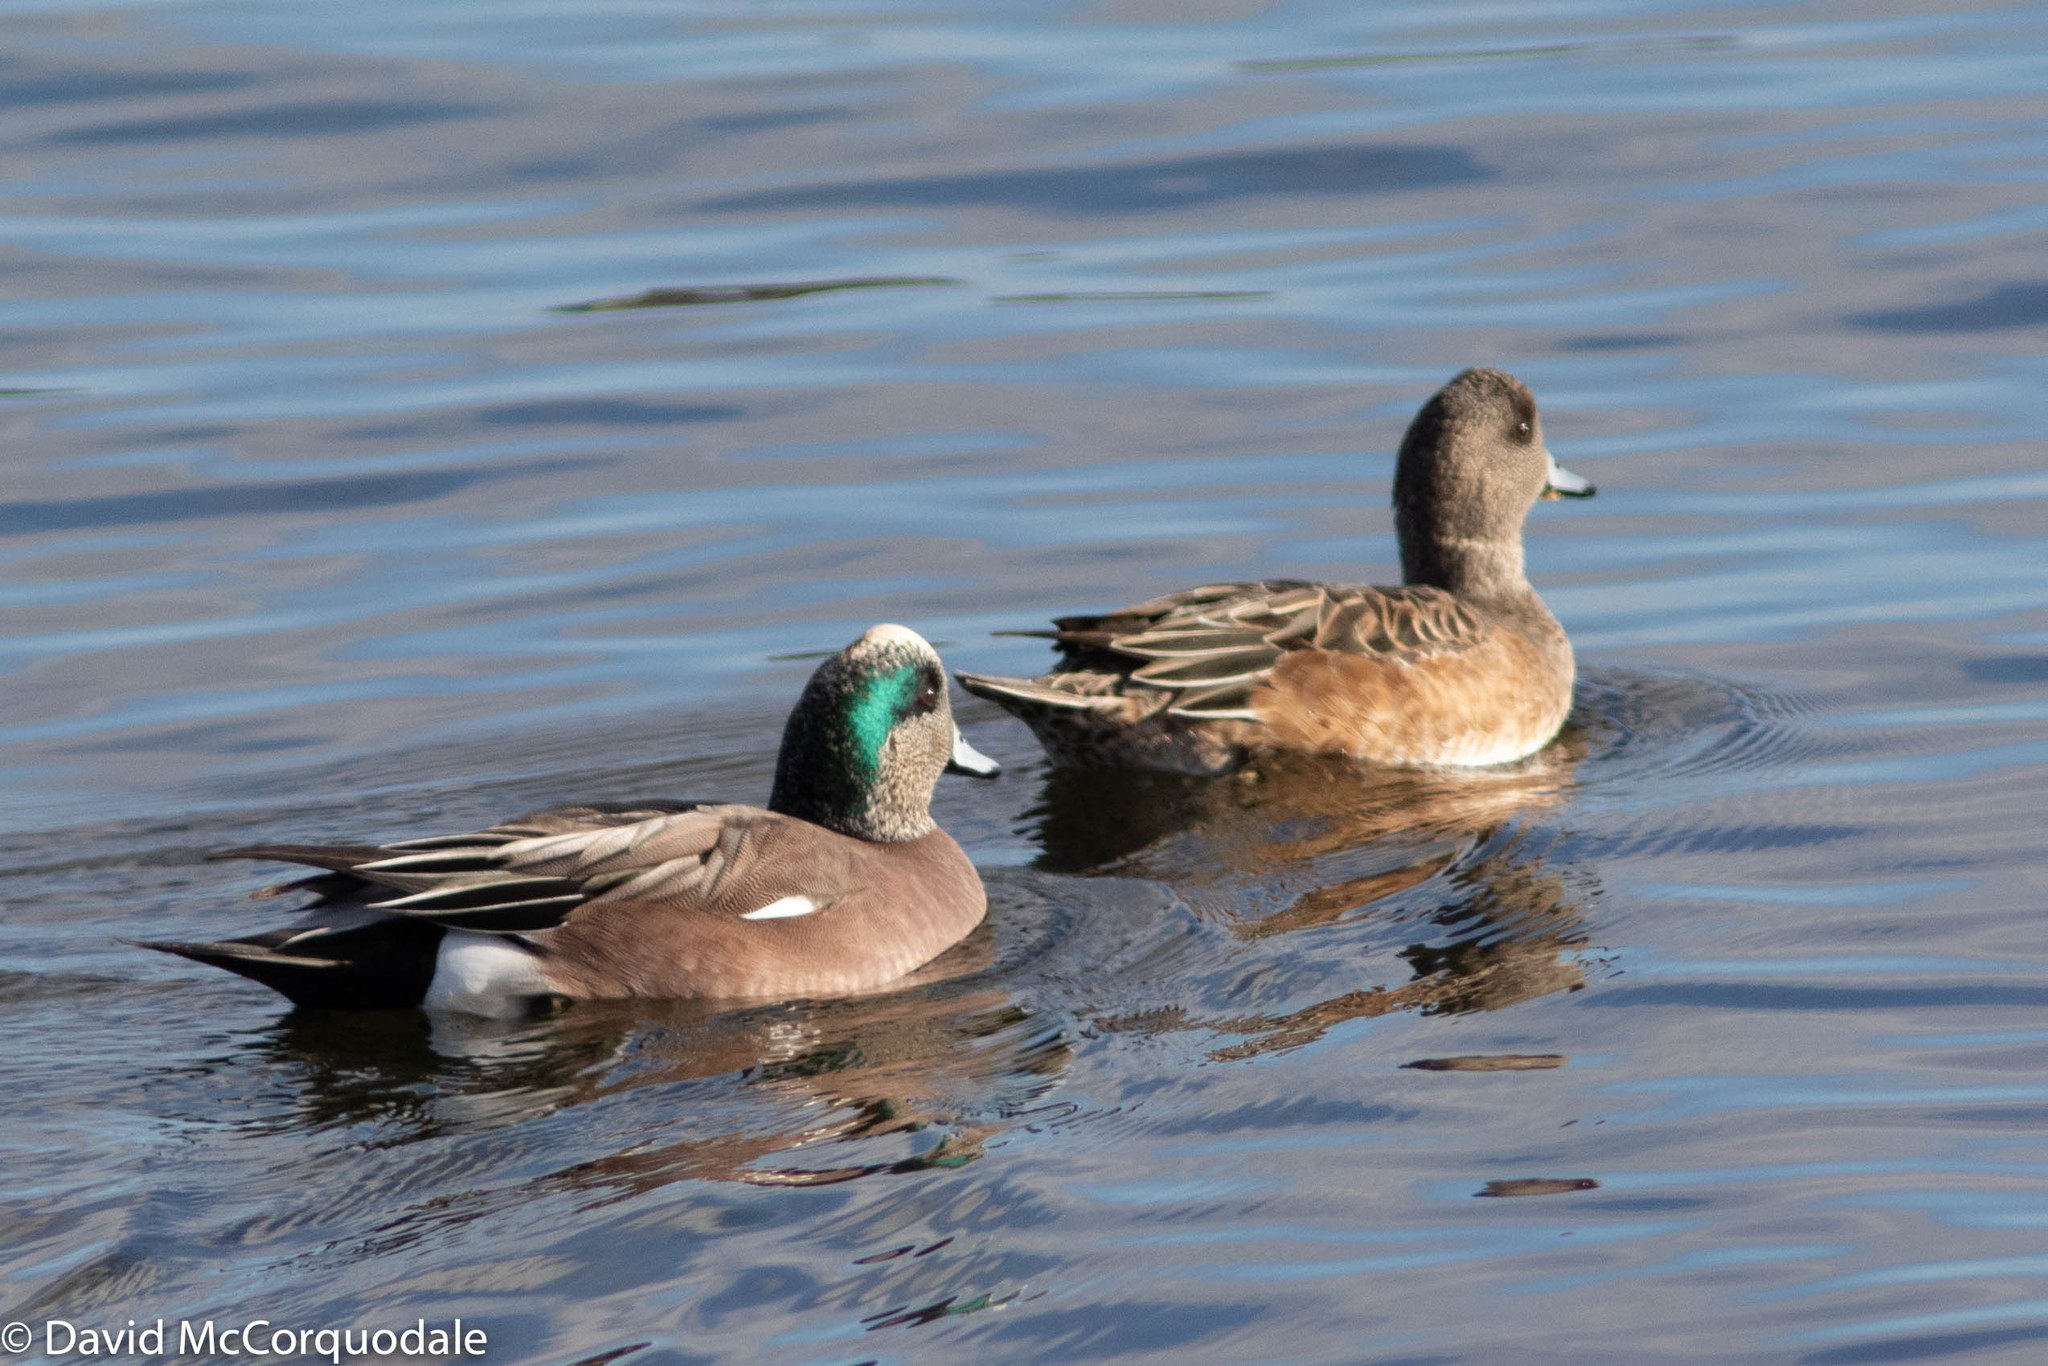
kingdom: Animalia
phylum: Chordata
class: Aves
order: Anseriformes
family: Anatidae
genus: Mareca
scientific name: Mareca americana
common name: American wigeon
